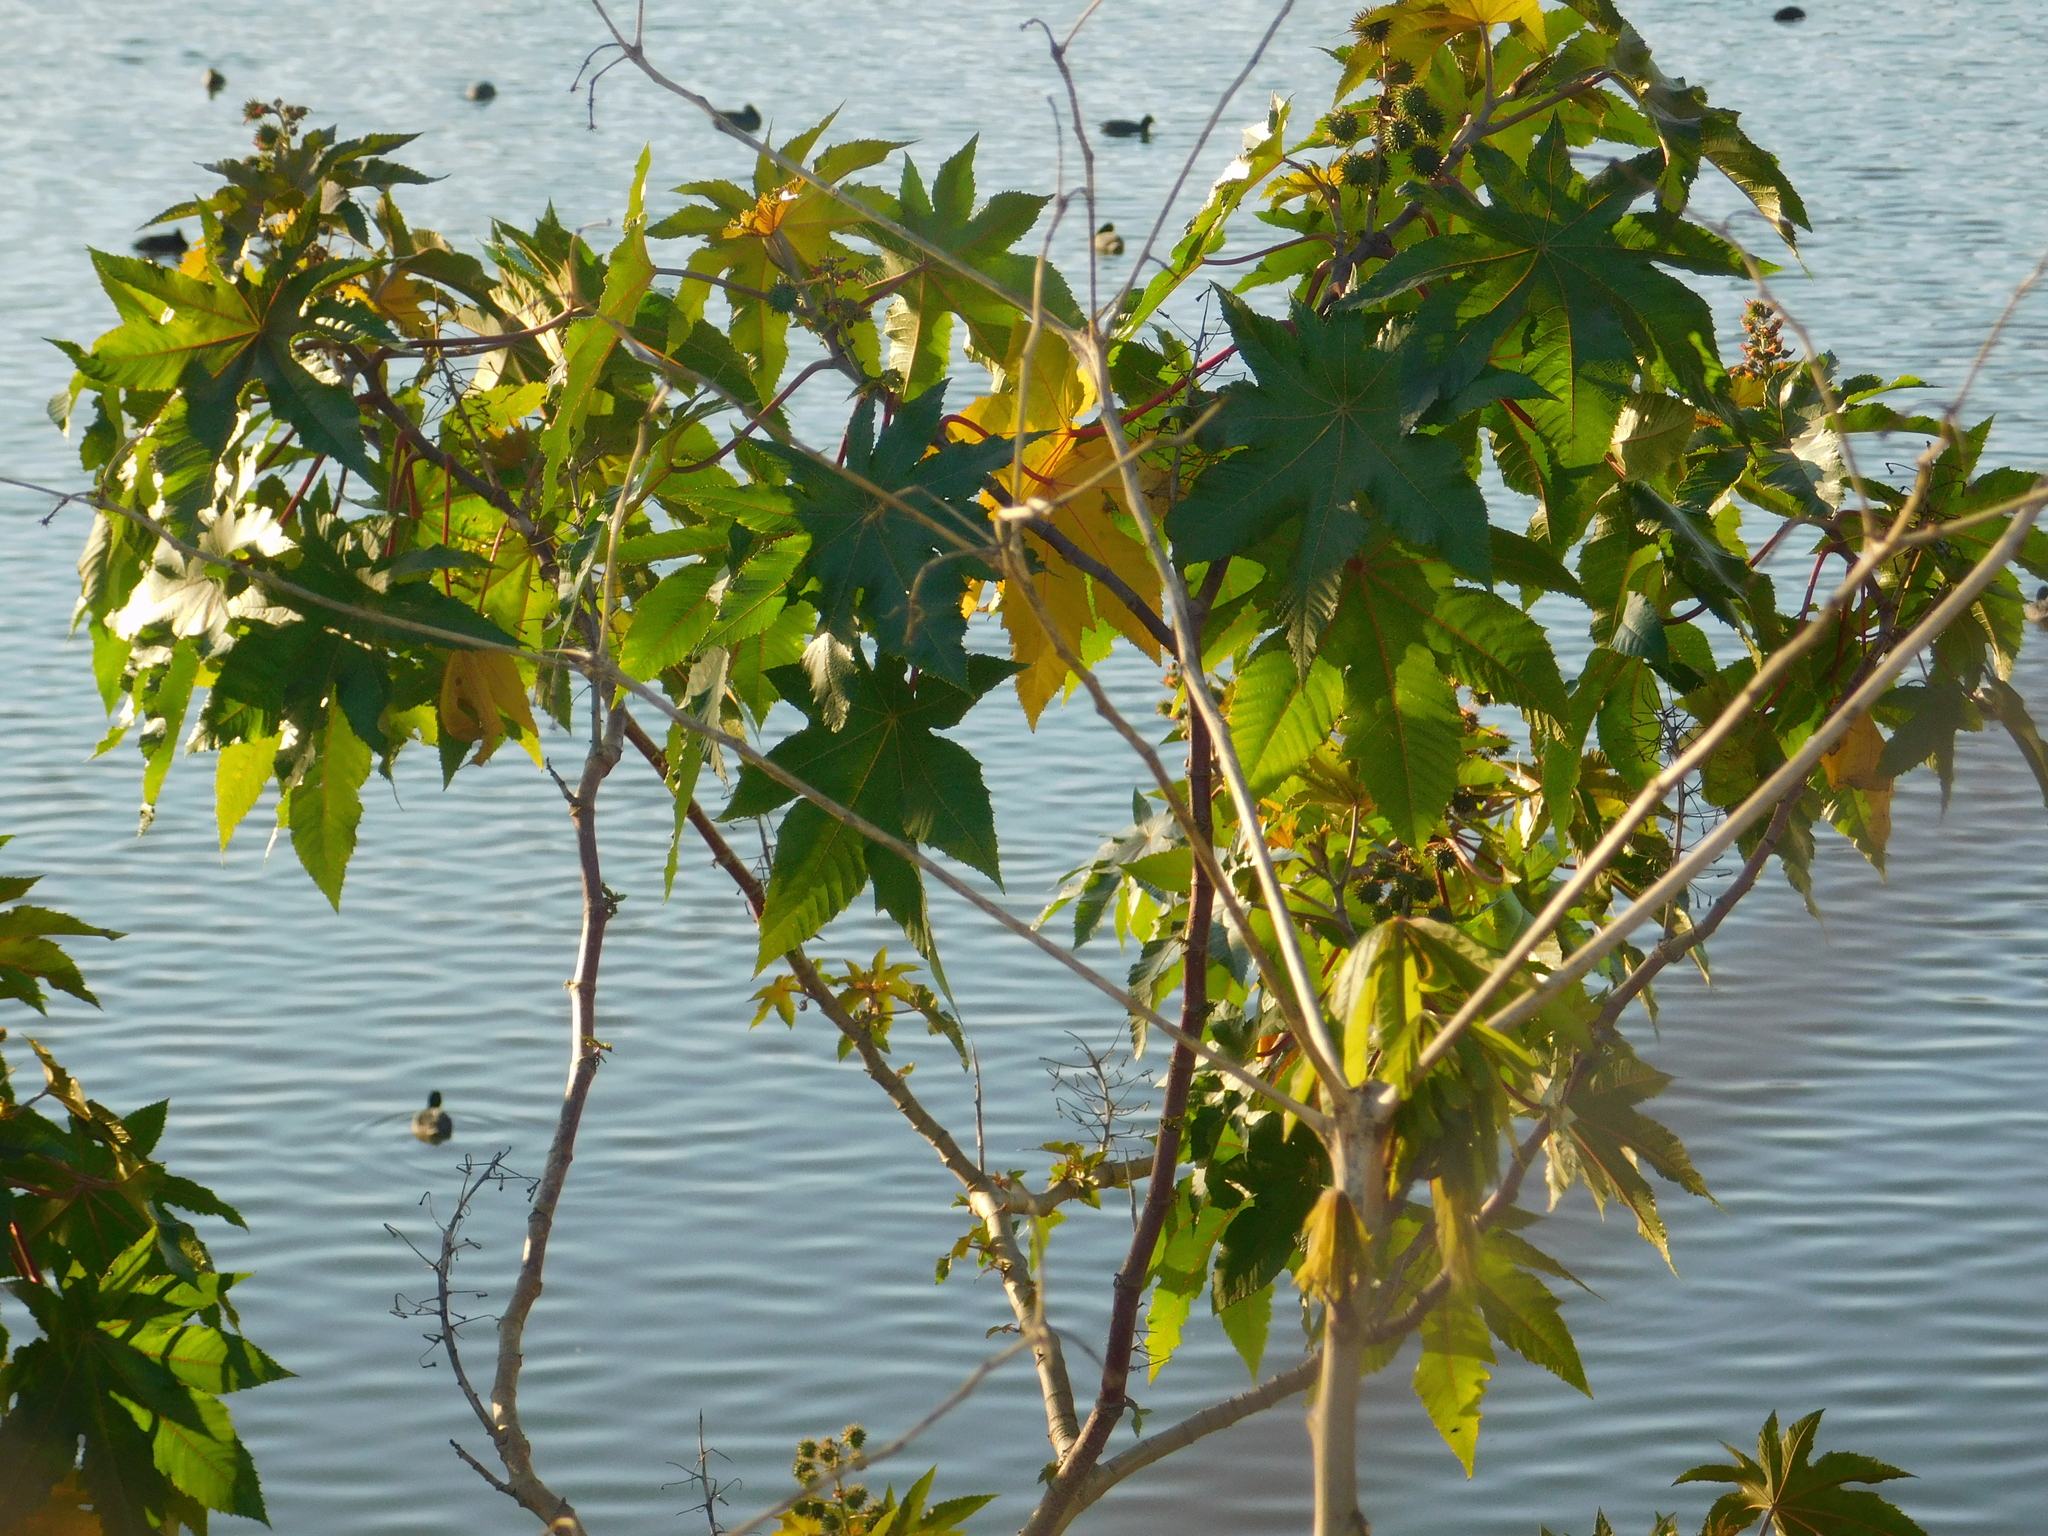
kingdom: Plantae
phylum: Tracheophyta
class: Magnoliopsida
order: Malpighiales
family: Euphorbiaceae
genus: Ricinus
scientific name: Ricinus communis
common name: Castor-oil-plant
